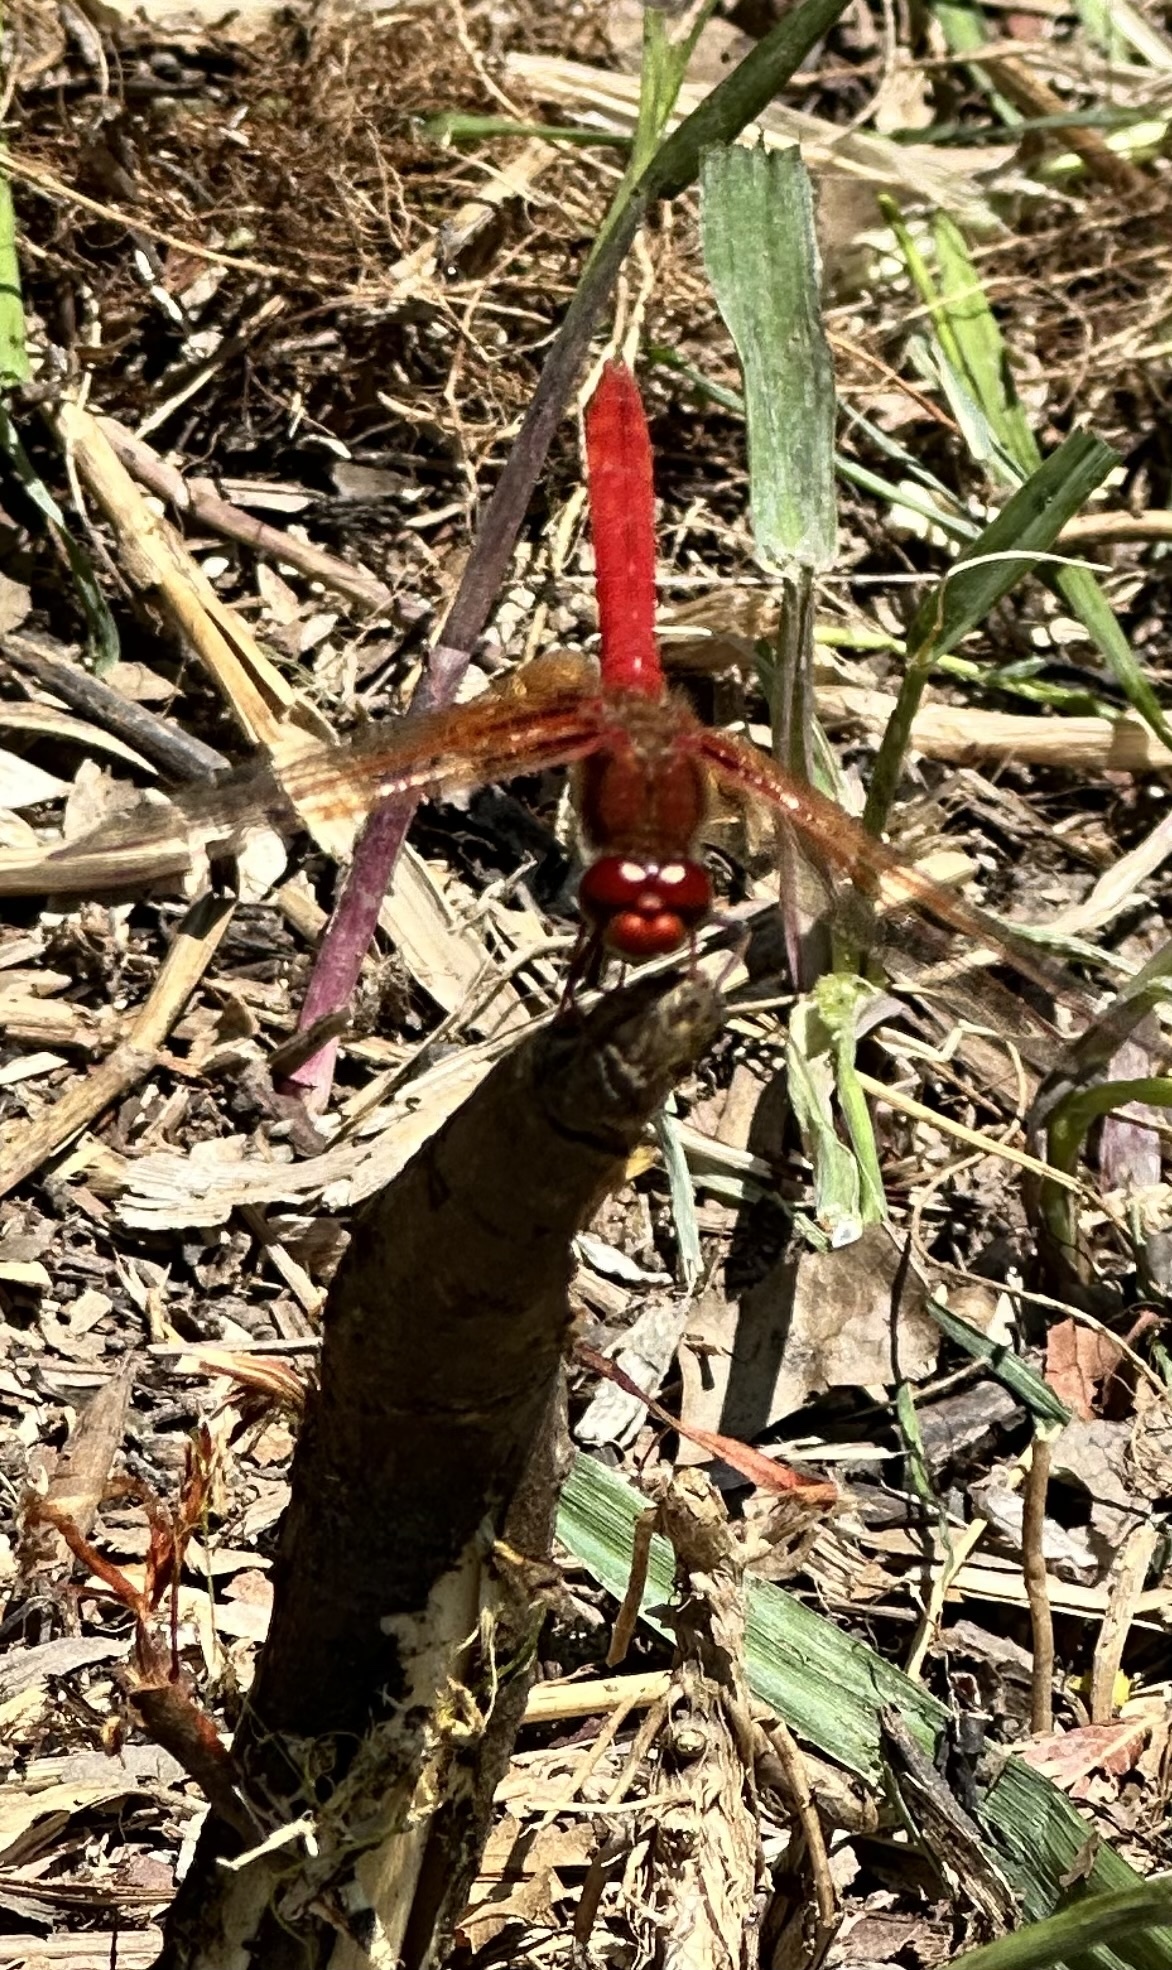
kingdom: Animalia
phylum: Arthropoda
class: Insecta
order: Odonata
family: Libellulidae
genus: Sympetrum
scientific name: Sympetrum illotum
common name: Cardinal meadowhawk
